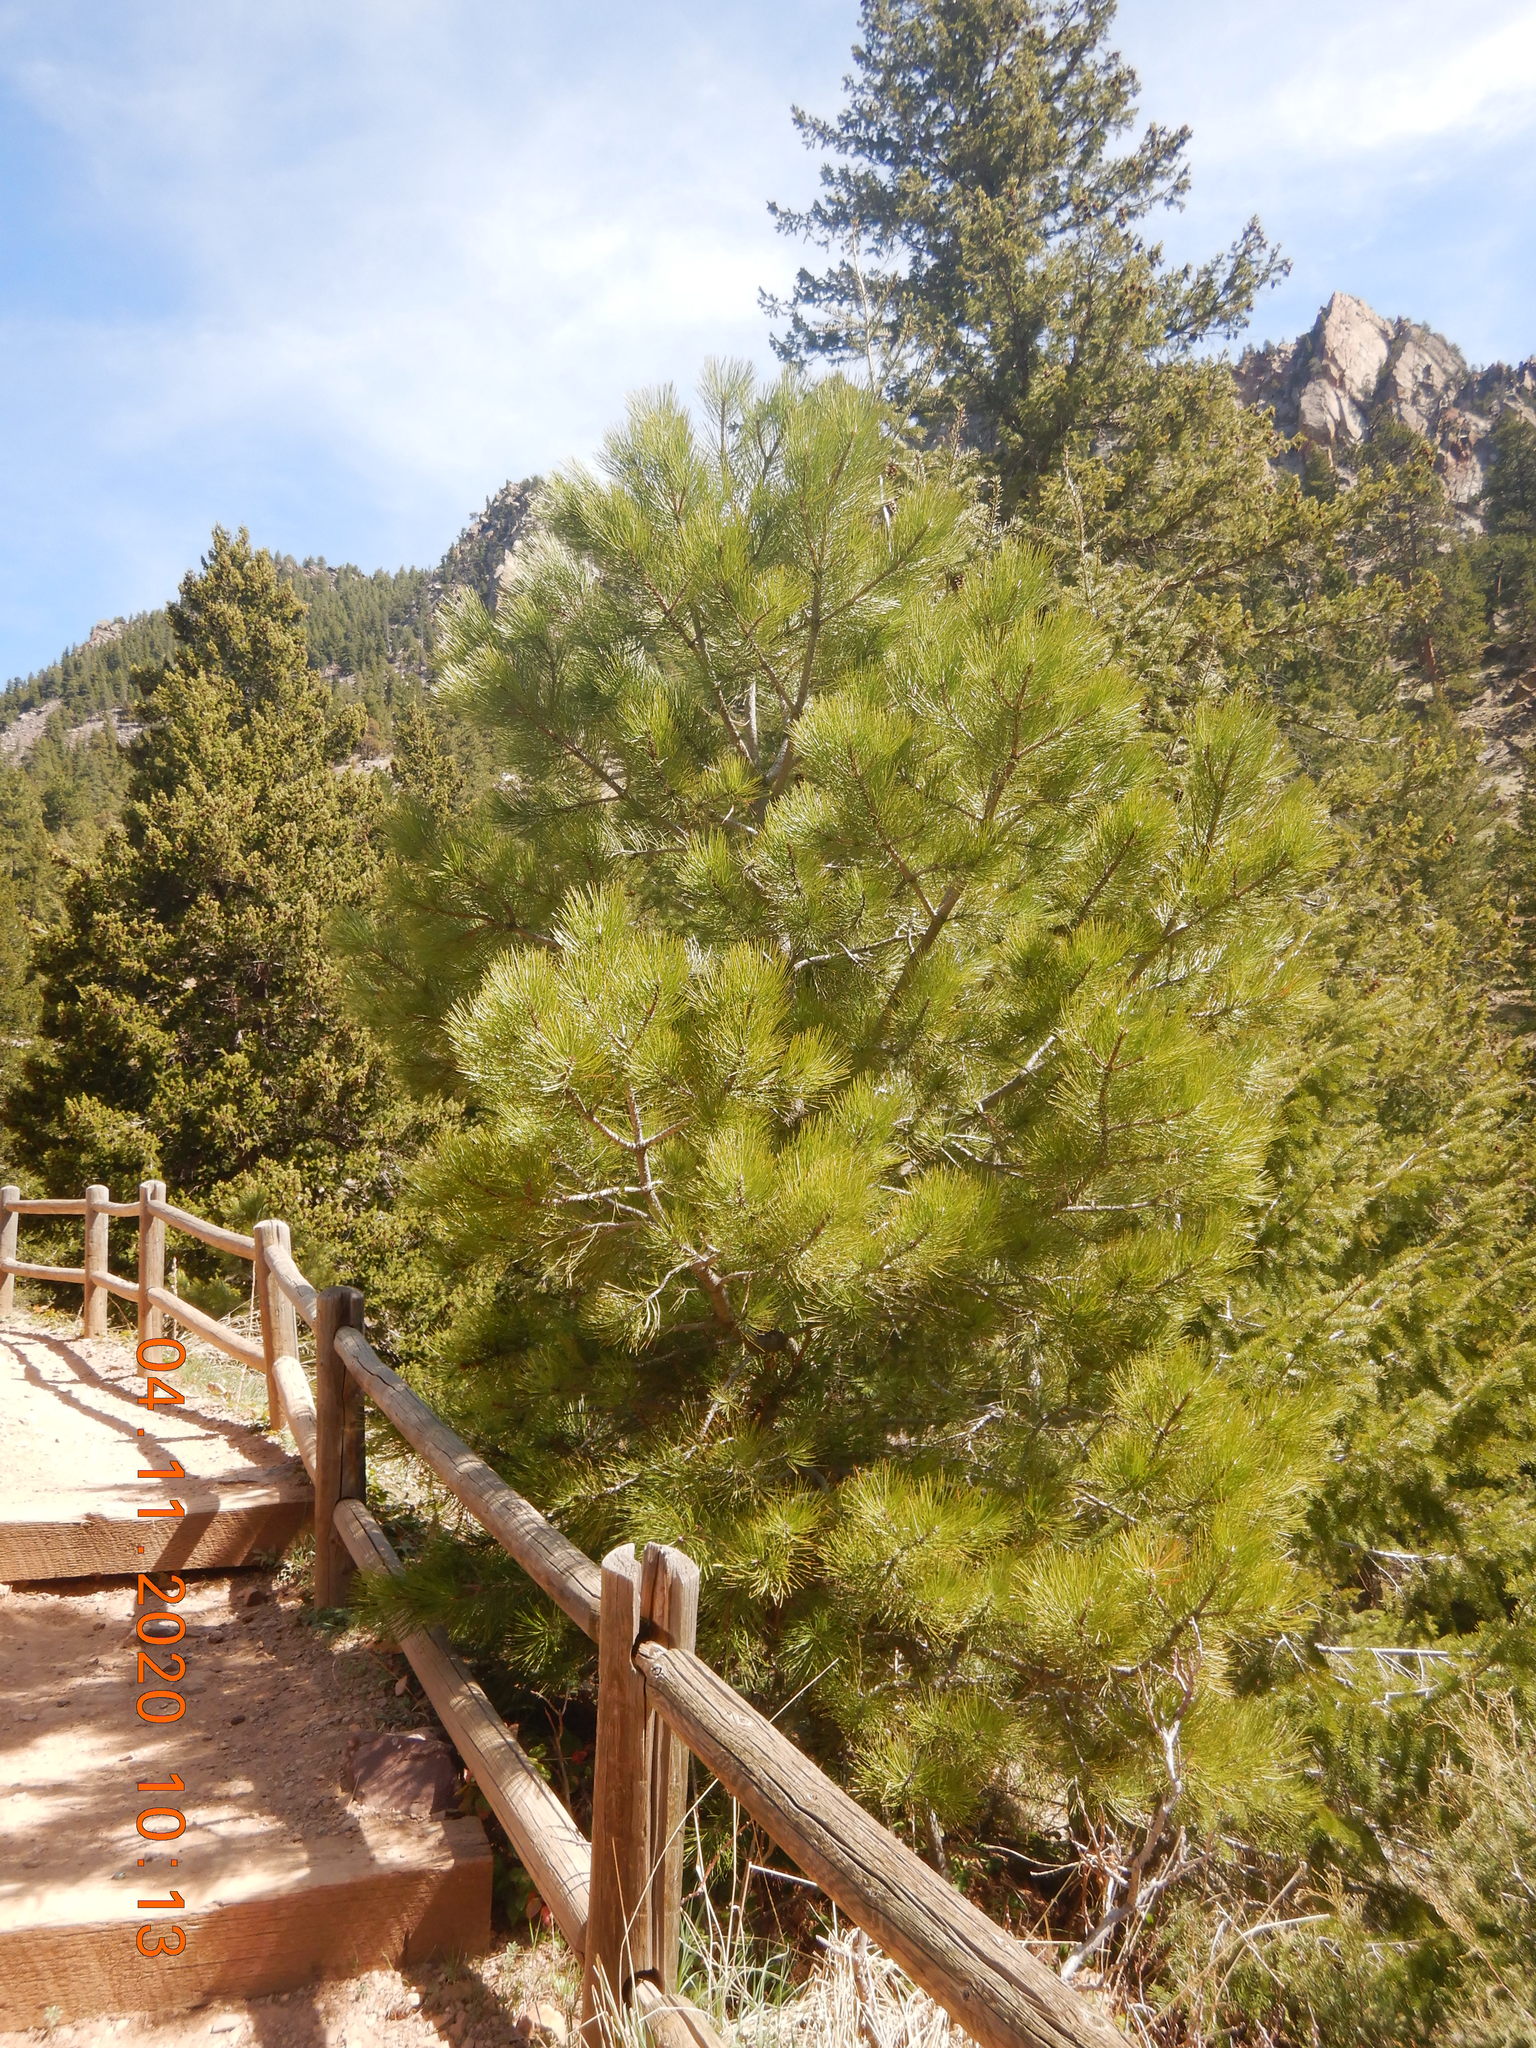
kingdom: Plantae
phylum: Tracheophyta
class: Pinopsida
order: Pinales
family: Pinaceae
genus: Pinus
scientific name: Pinus ponderosa
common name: Western yellow-pine
